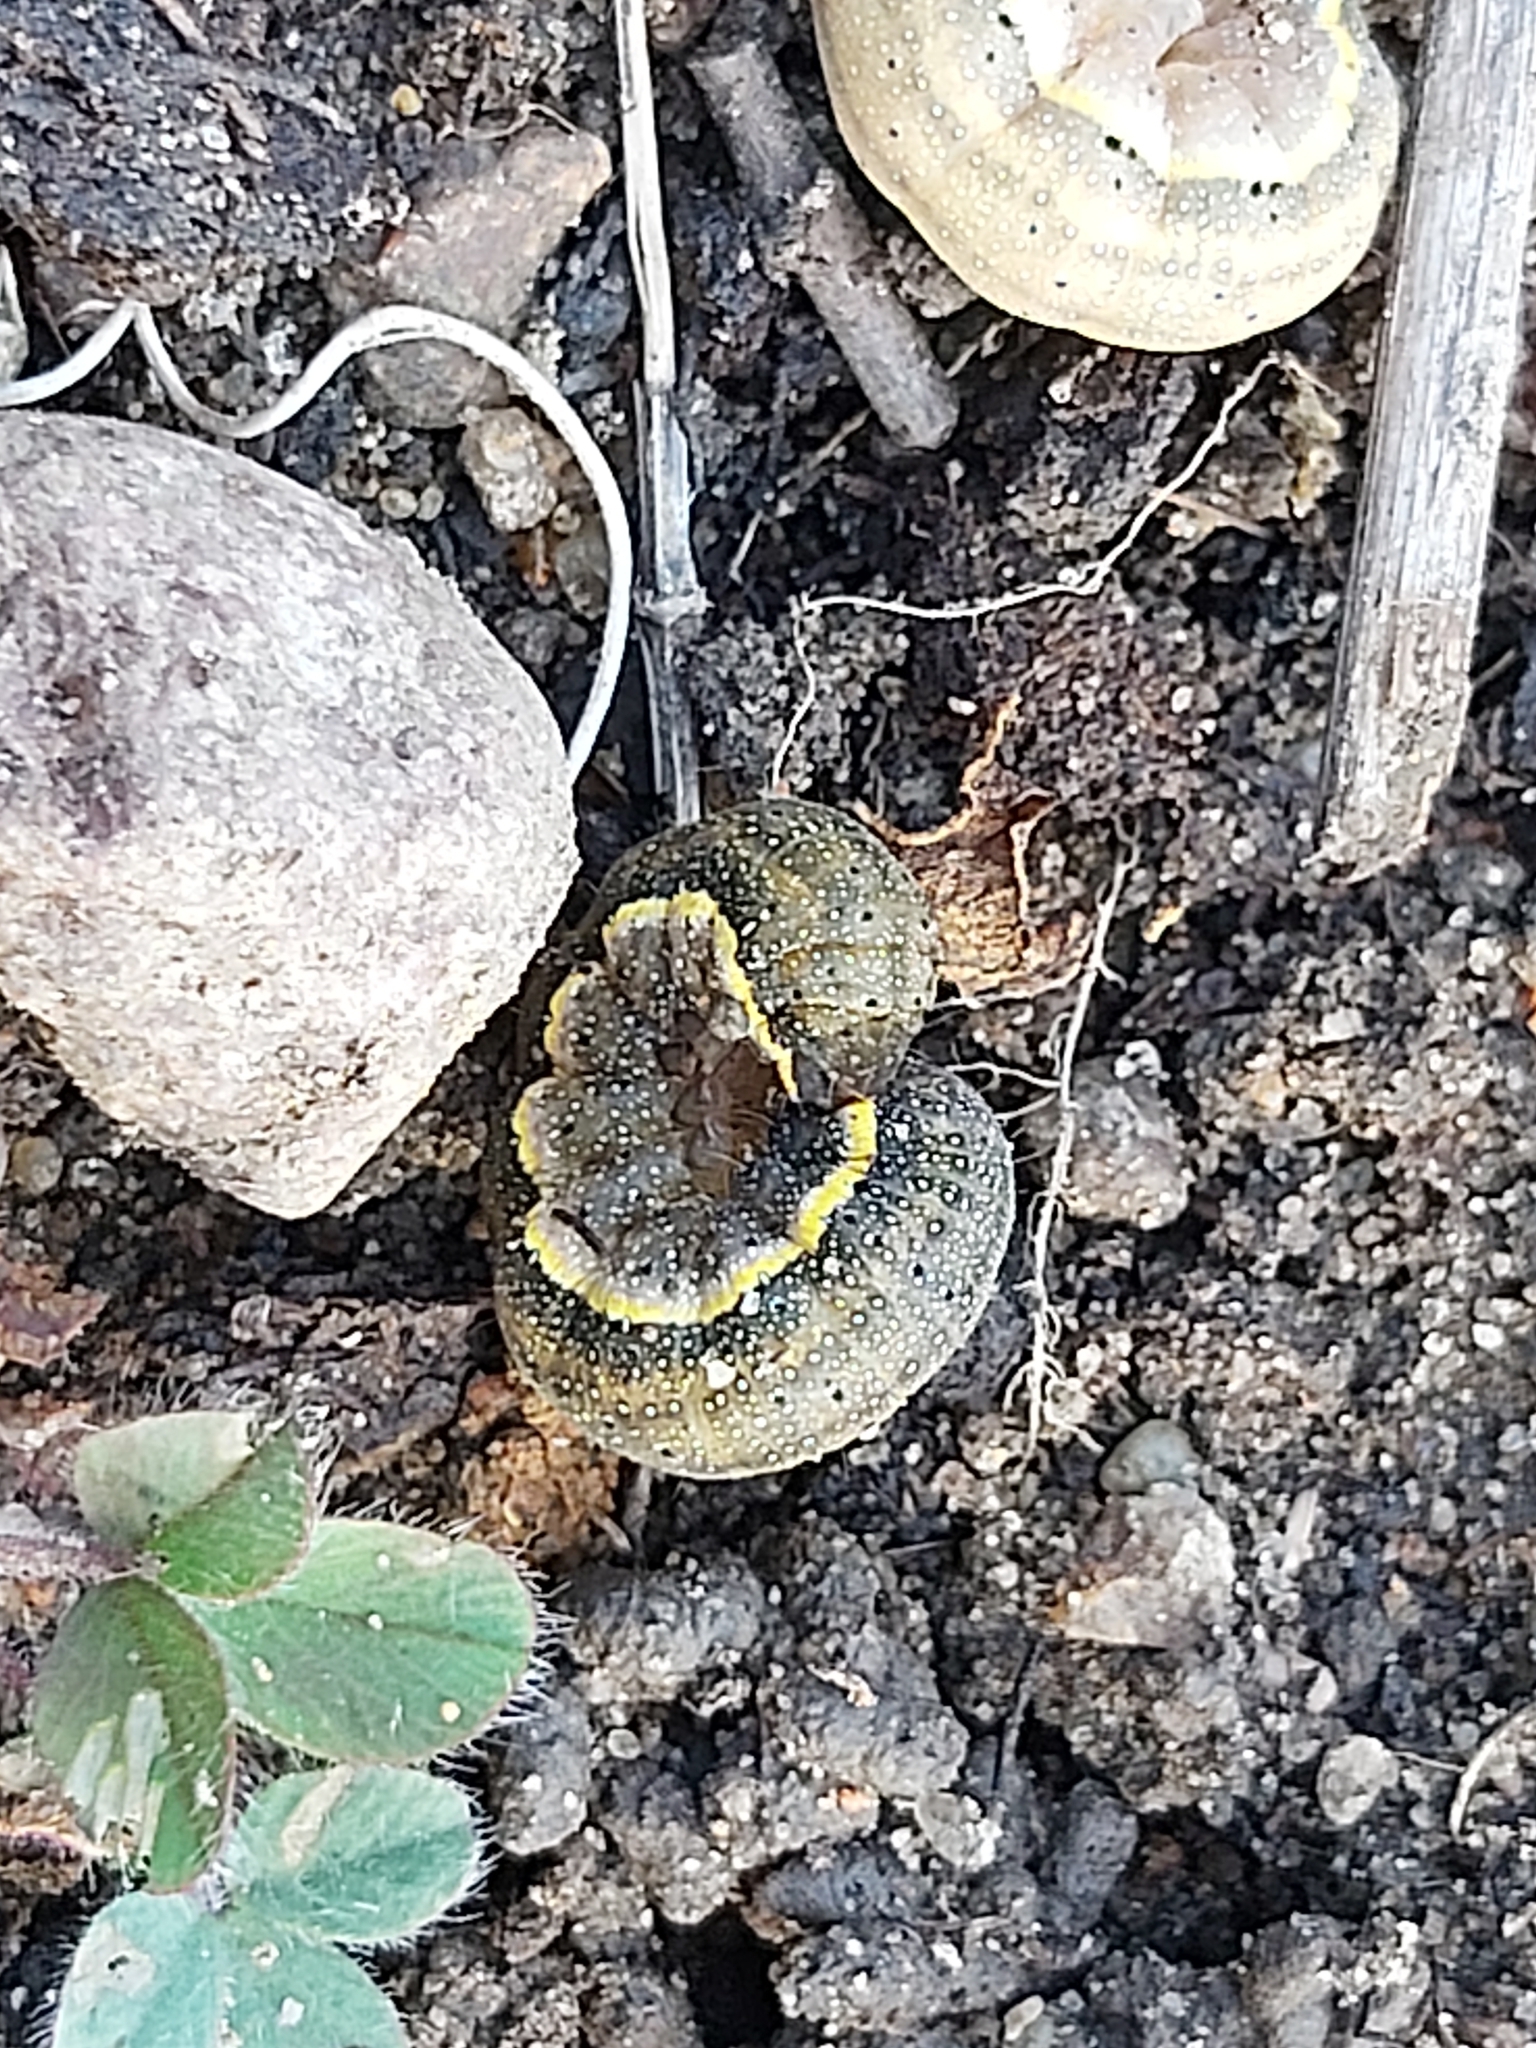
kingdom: Animalia
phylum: Arthropoda
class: Insecta
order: Lepidoptera
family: Noctuidae
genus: Lacanobia
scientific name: Lacanobia oleracea
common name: Bright-line brown-eye
